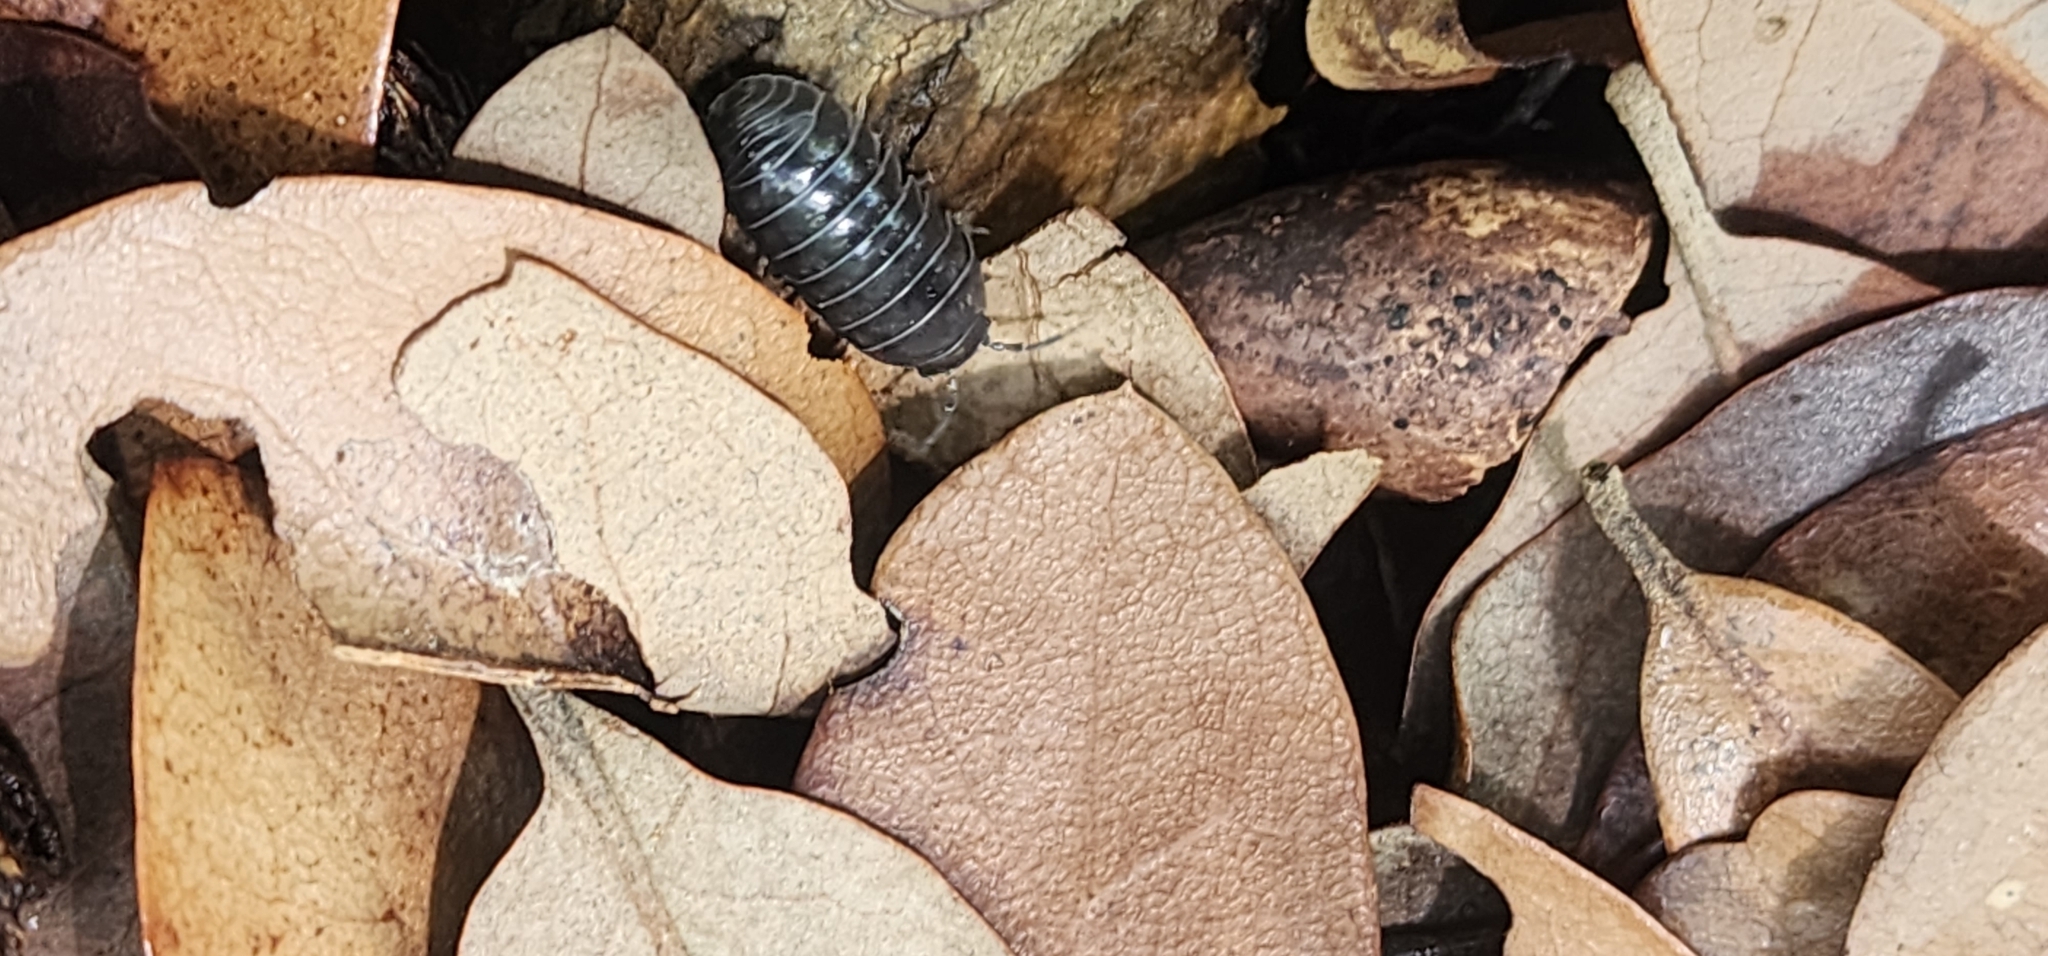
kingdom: Animalia
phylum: Arthropoda
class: Malacostraca
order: Isopoda
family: Armadillidiidae
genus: Armadillidium
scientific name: Armadillidium vulgare
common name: Common pill woodlouse
